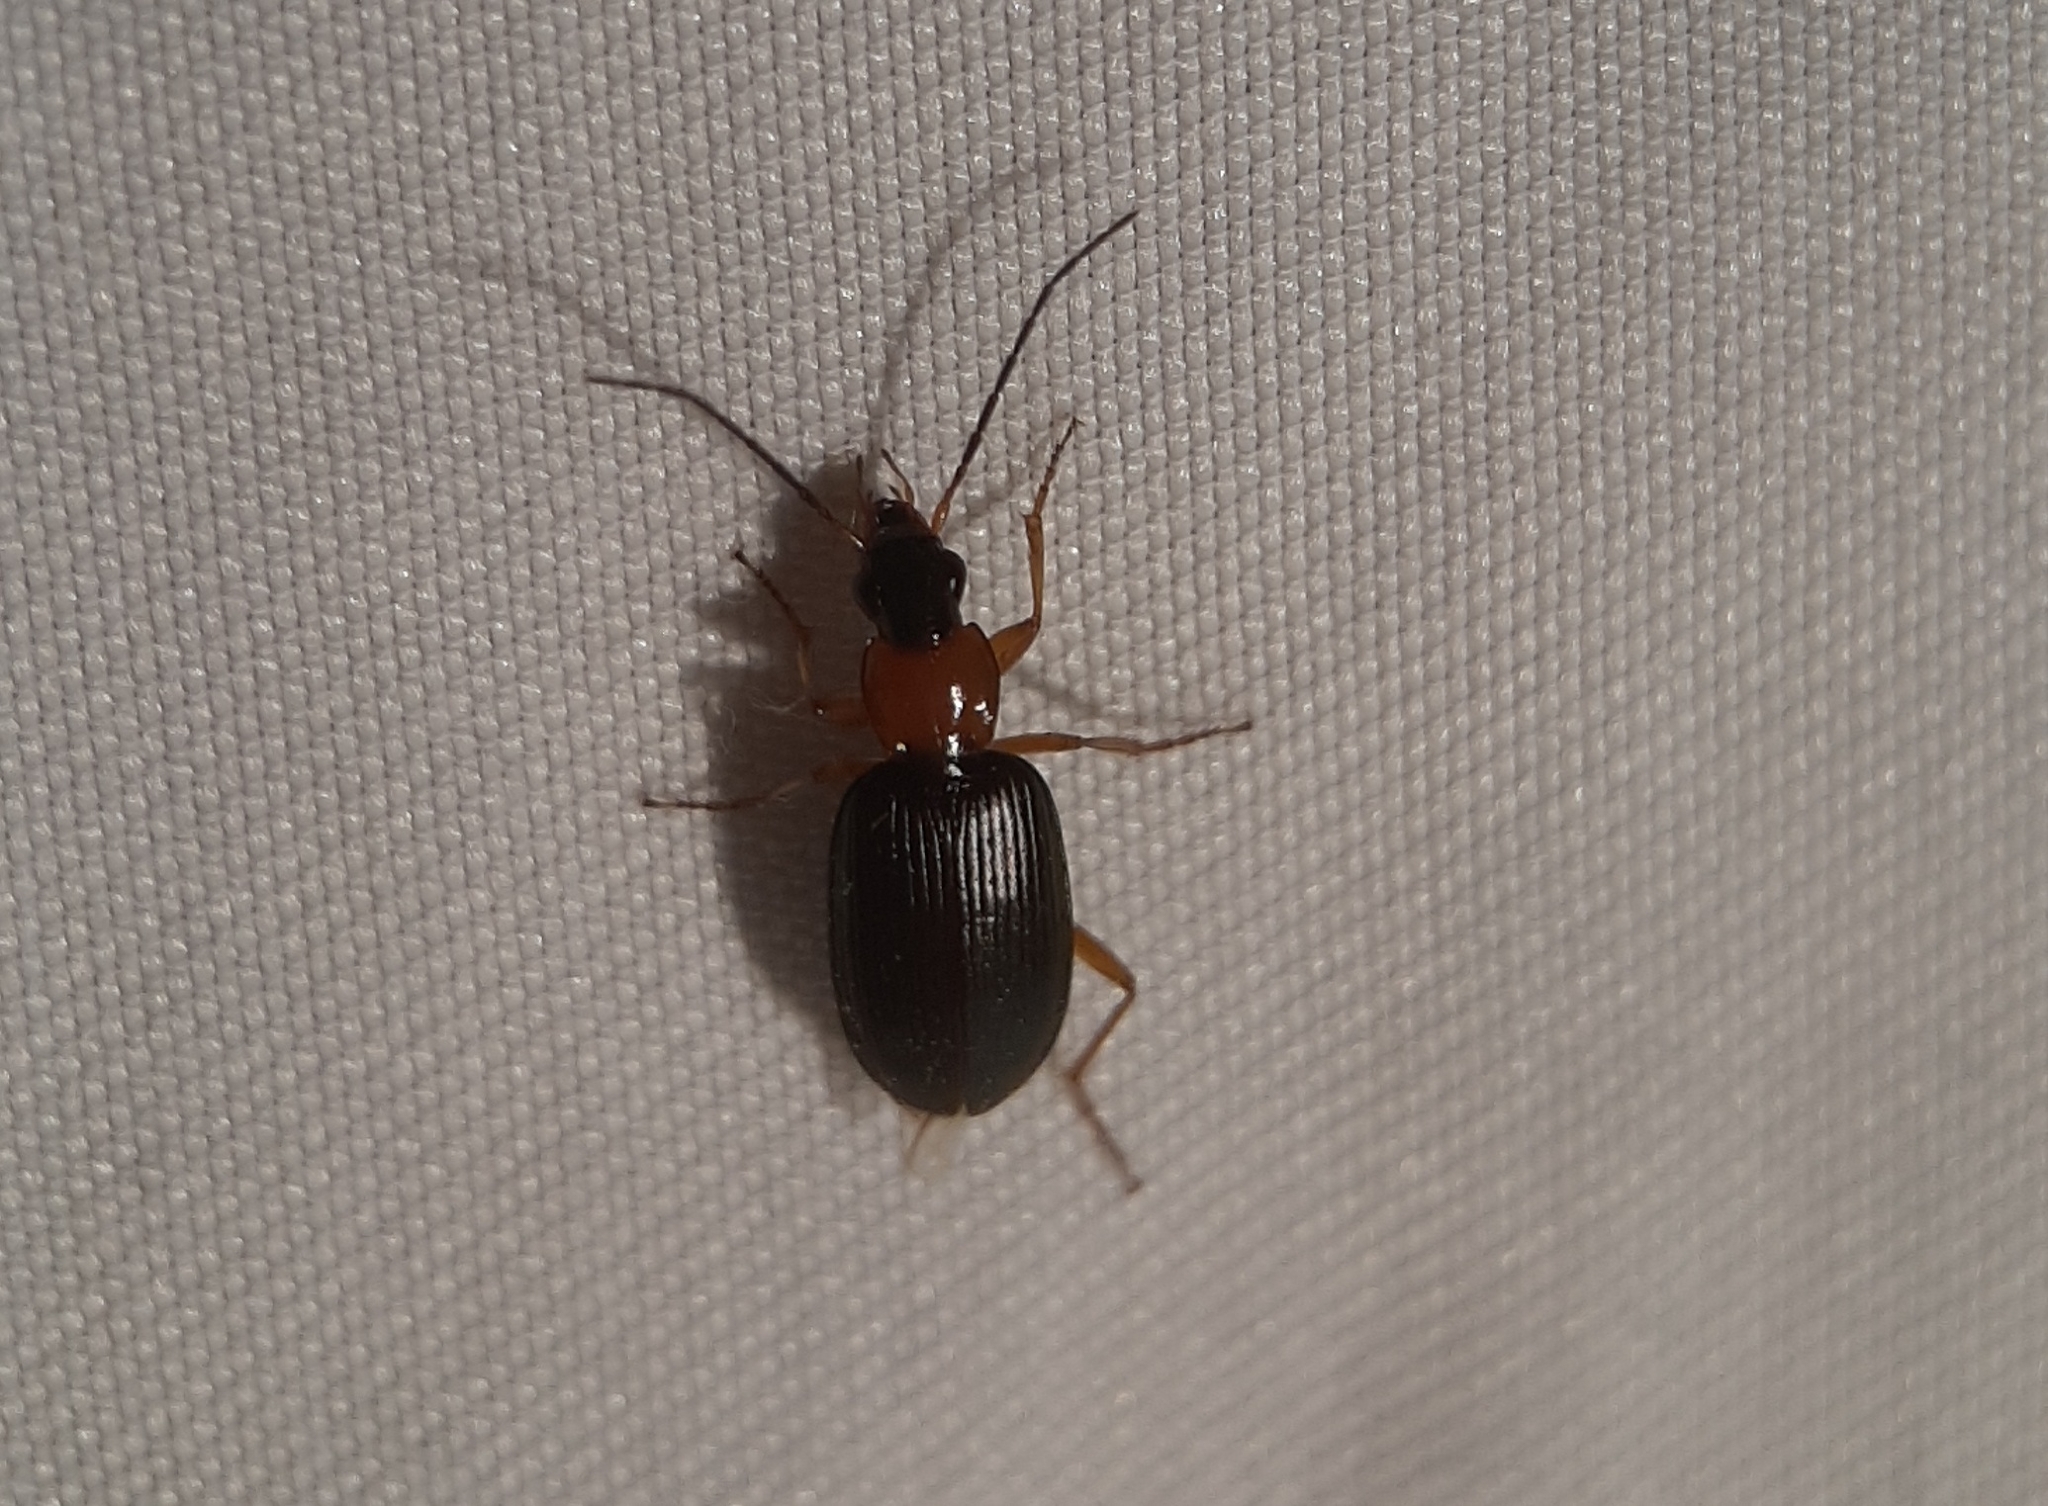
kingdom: Animalia
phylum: Arthropoda
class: Insecta
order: Coleoptera
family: Carabidae
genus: Agonum
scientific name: Agonum decorum
